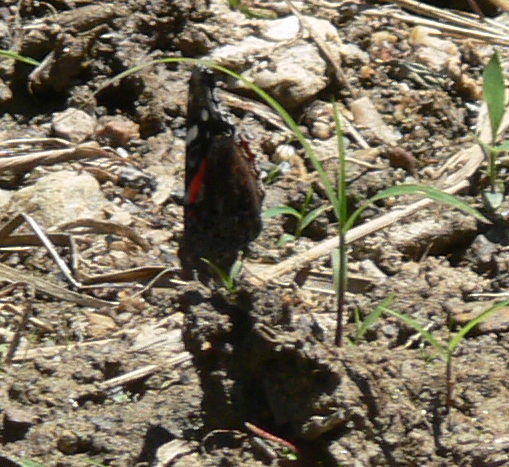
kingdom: Animalia
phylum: Arthropoda
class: Insecta
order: Lepidoptera
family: Nymphalidae
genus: Vanessa
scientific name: Vanessa atalanta
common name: Red admiral
